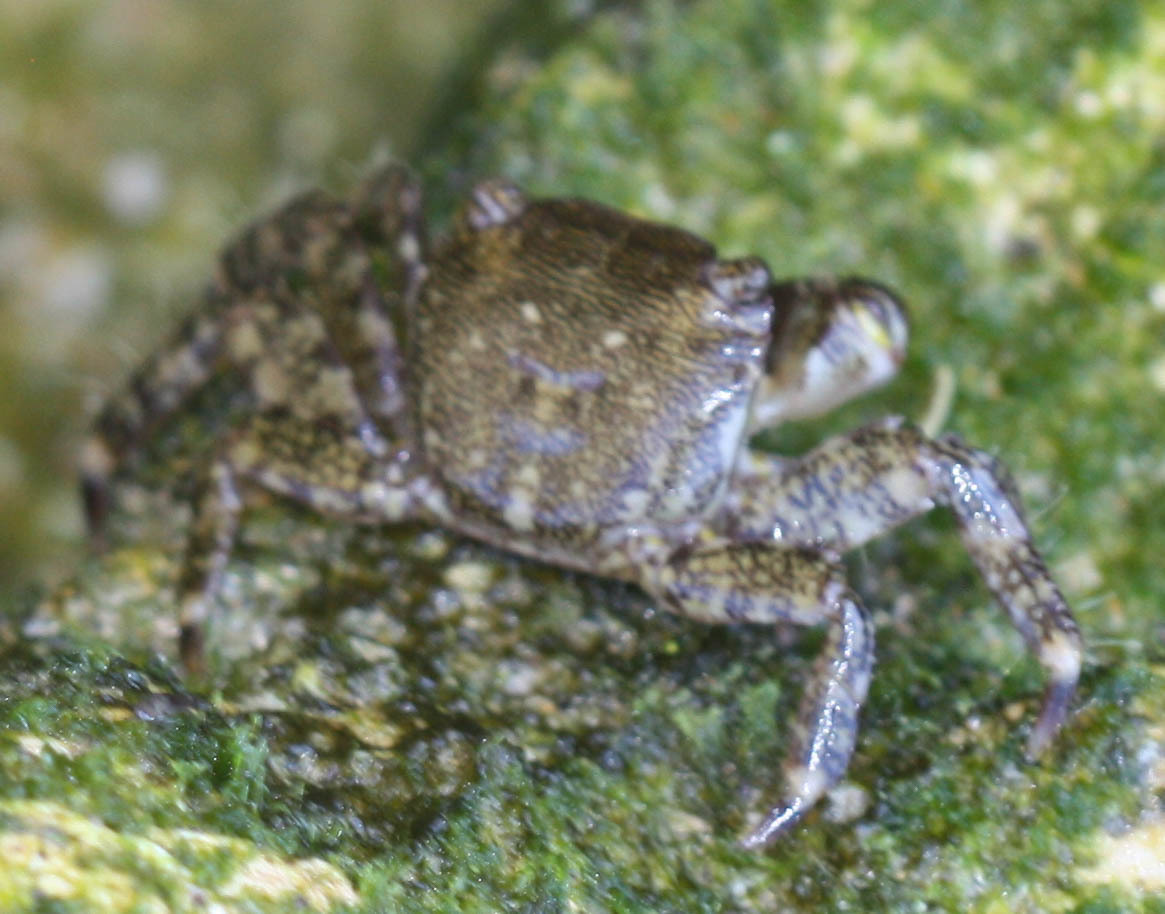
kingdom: Animalia
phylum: Arthropoda
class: Malacostraca
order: Decapoda
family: Grapsidae
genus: Pachygrapsus
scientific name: Pachygrapsus marmoratus
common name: Marbled rock crab
